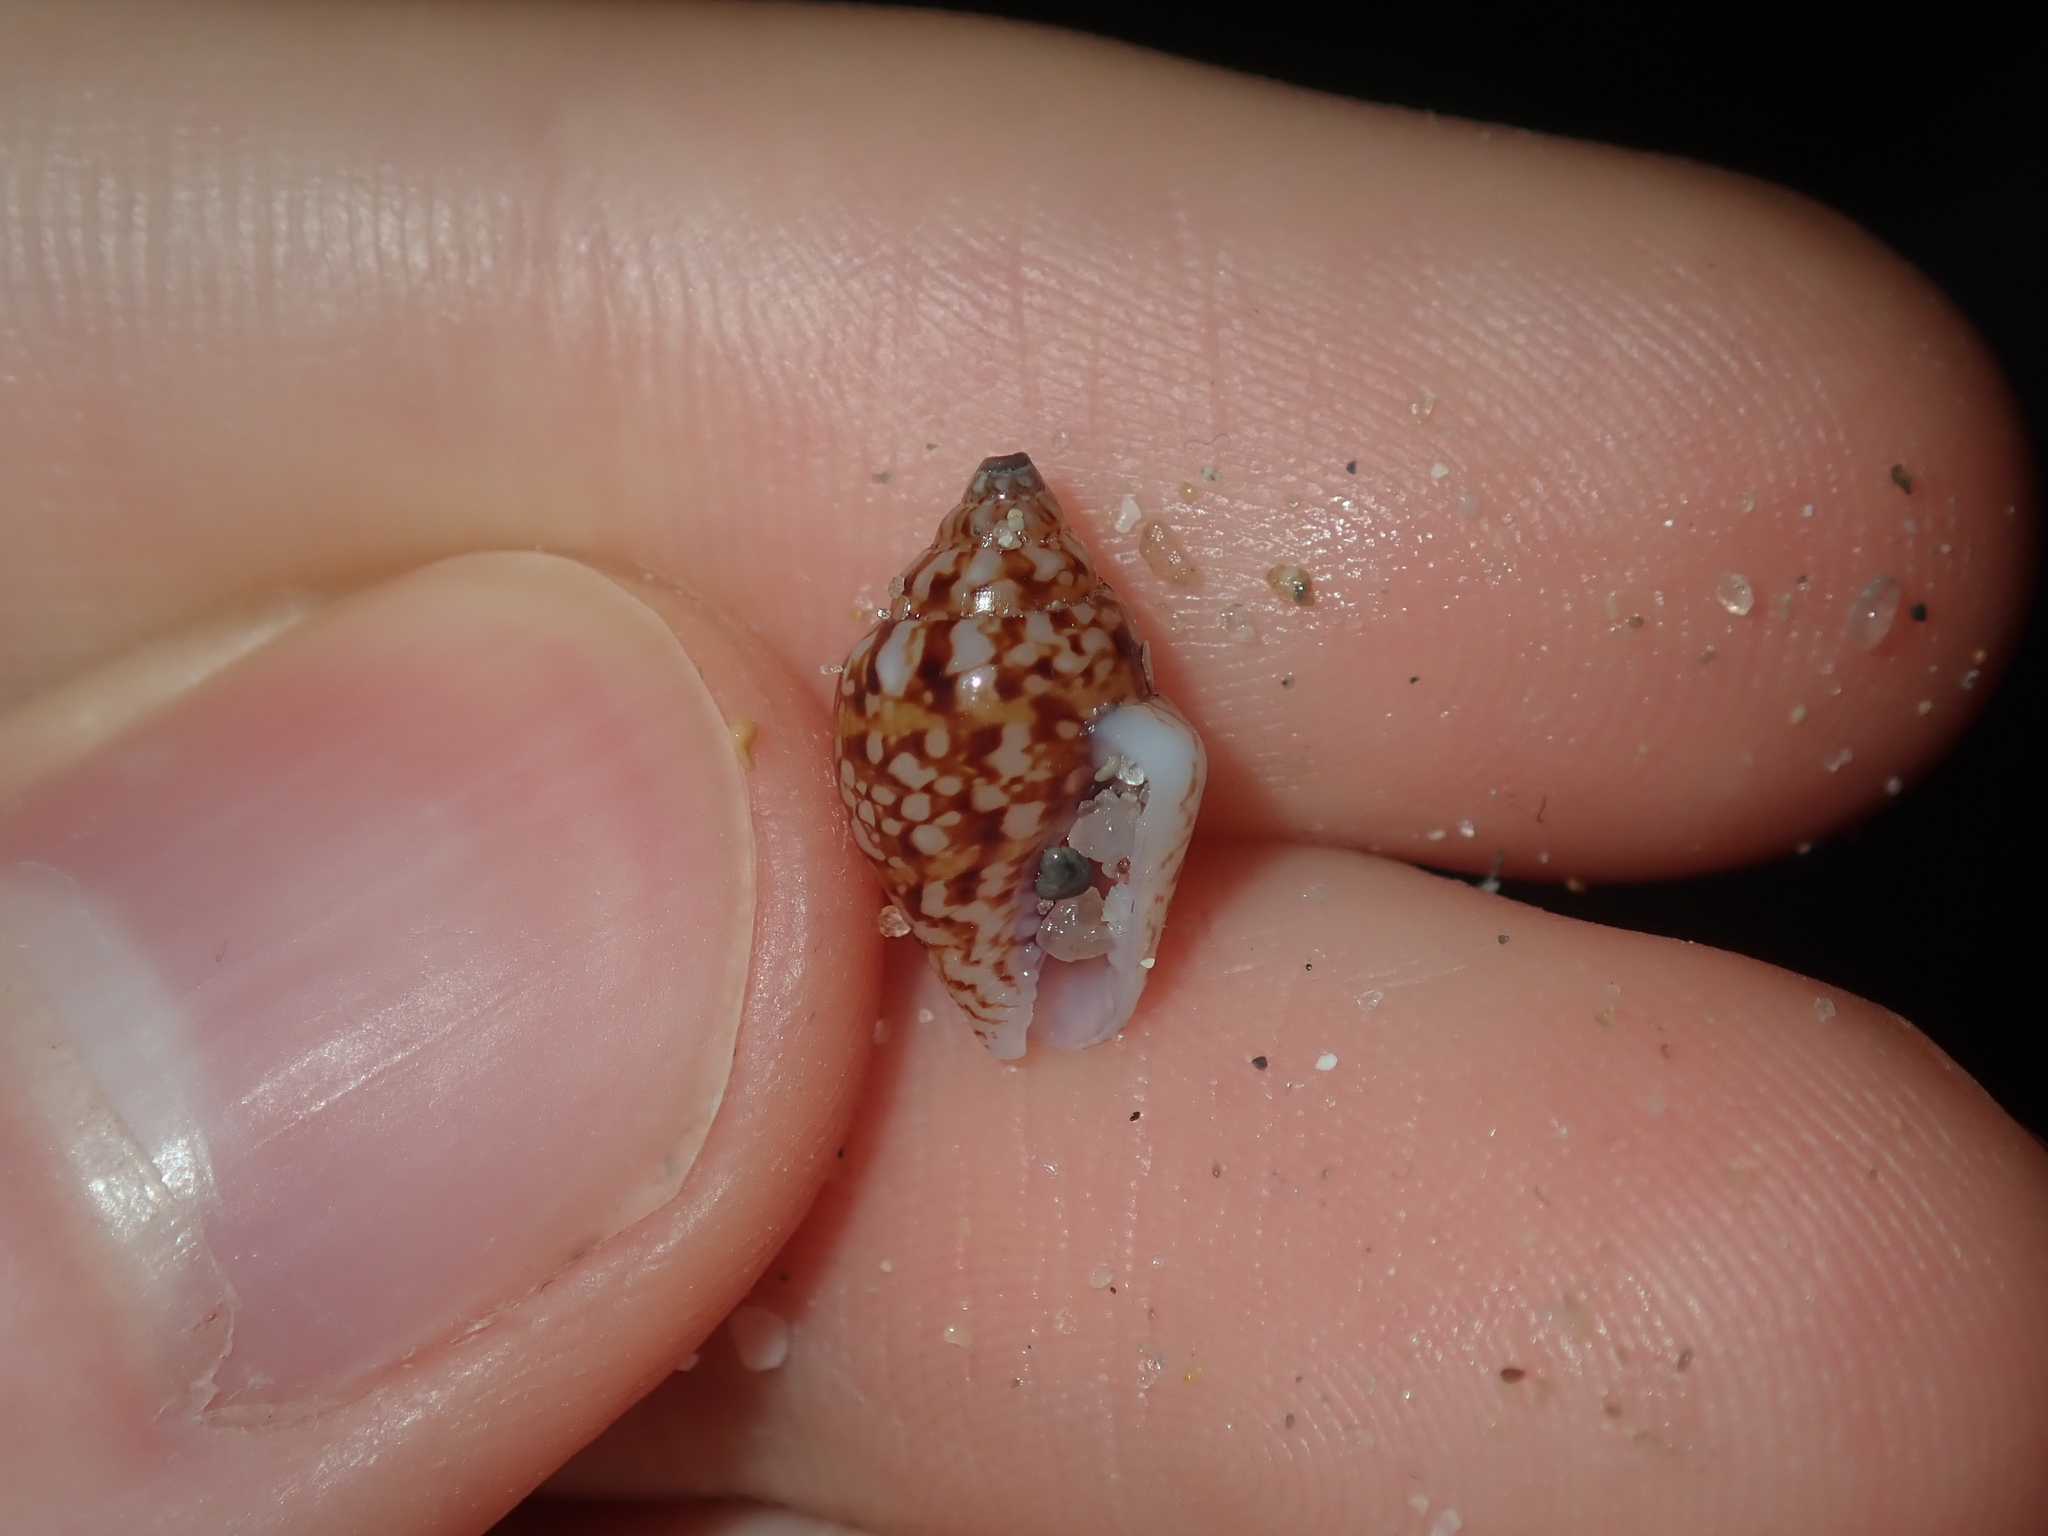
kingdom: Animalia
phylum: Mollusca
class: Gastropoda
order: Neogastropoda
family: Columbellidae
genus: Euplica
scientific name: Euplica bidentata
